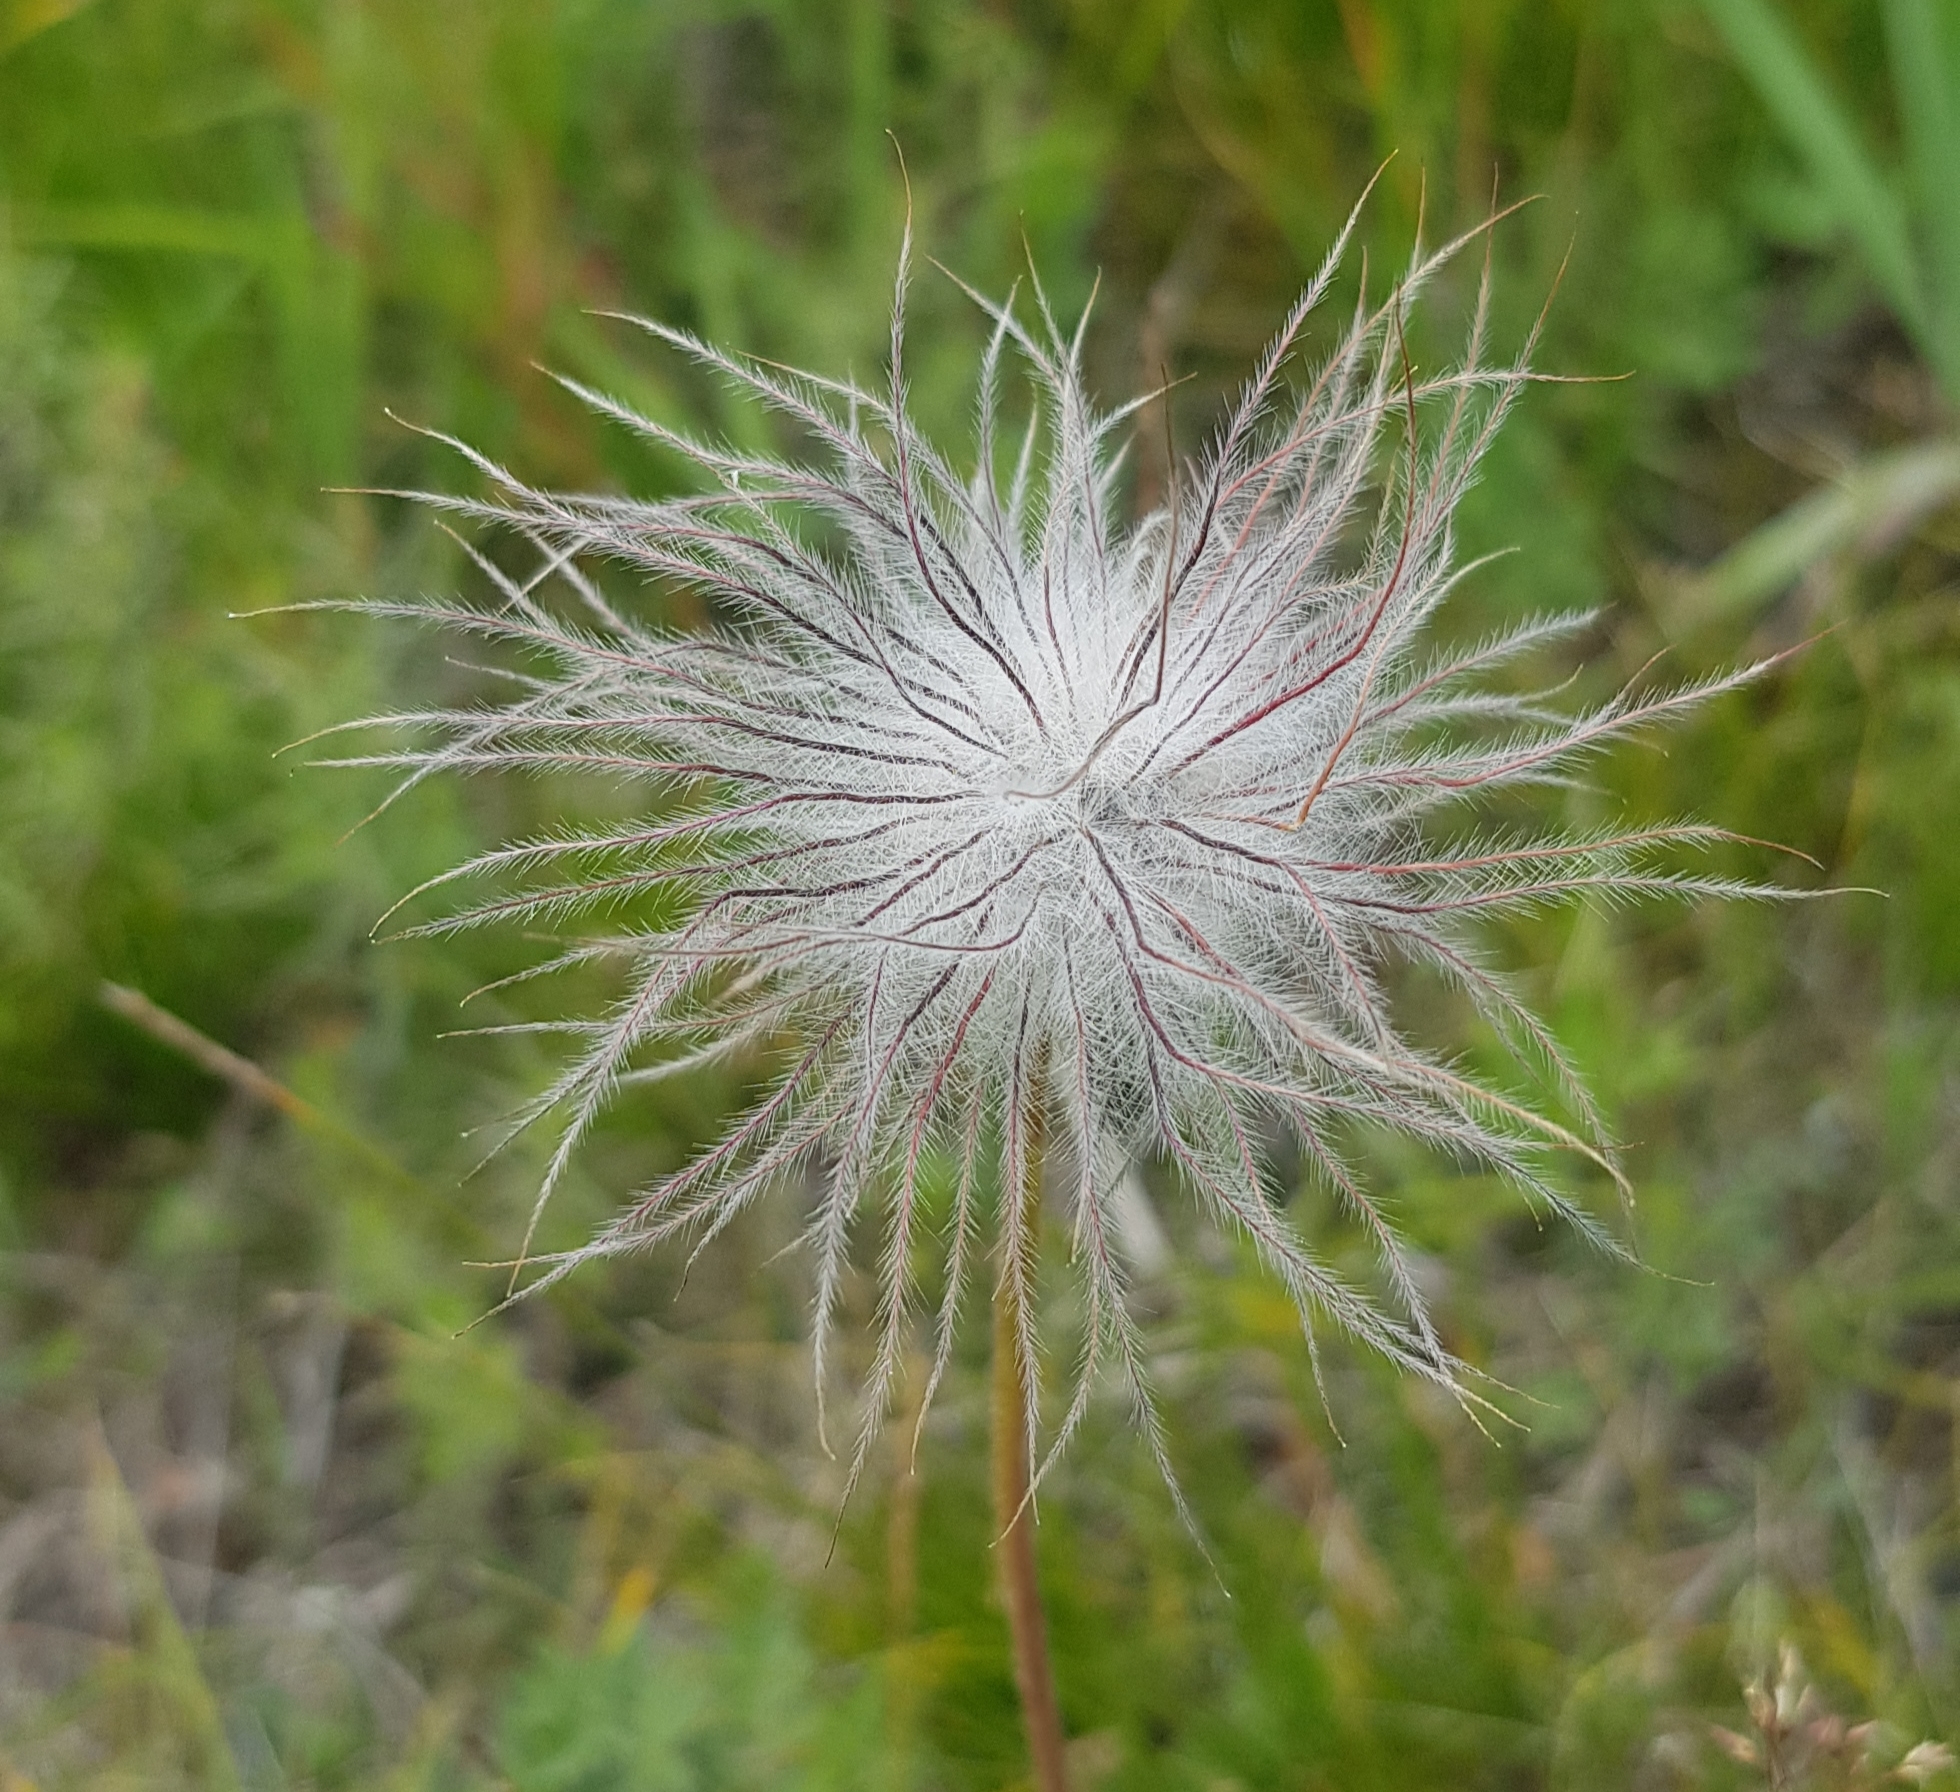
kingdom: Plantae
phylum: Tracheophyta
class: Magnoliopsida
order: Ranunculales
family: Ranunculaceae
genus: Pulsatilla
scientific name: Pulsatilla turczaninovii
